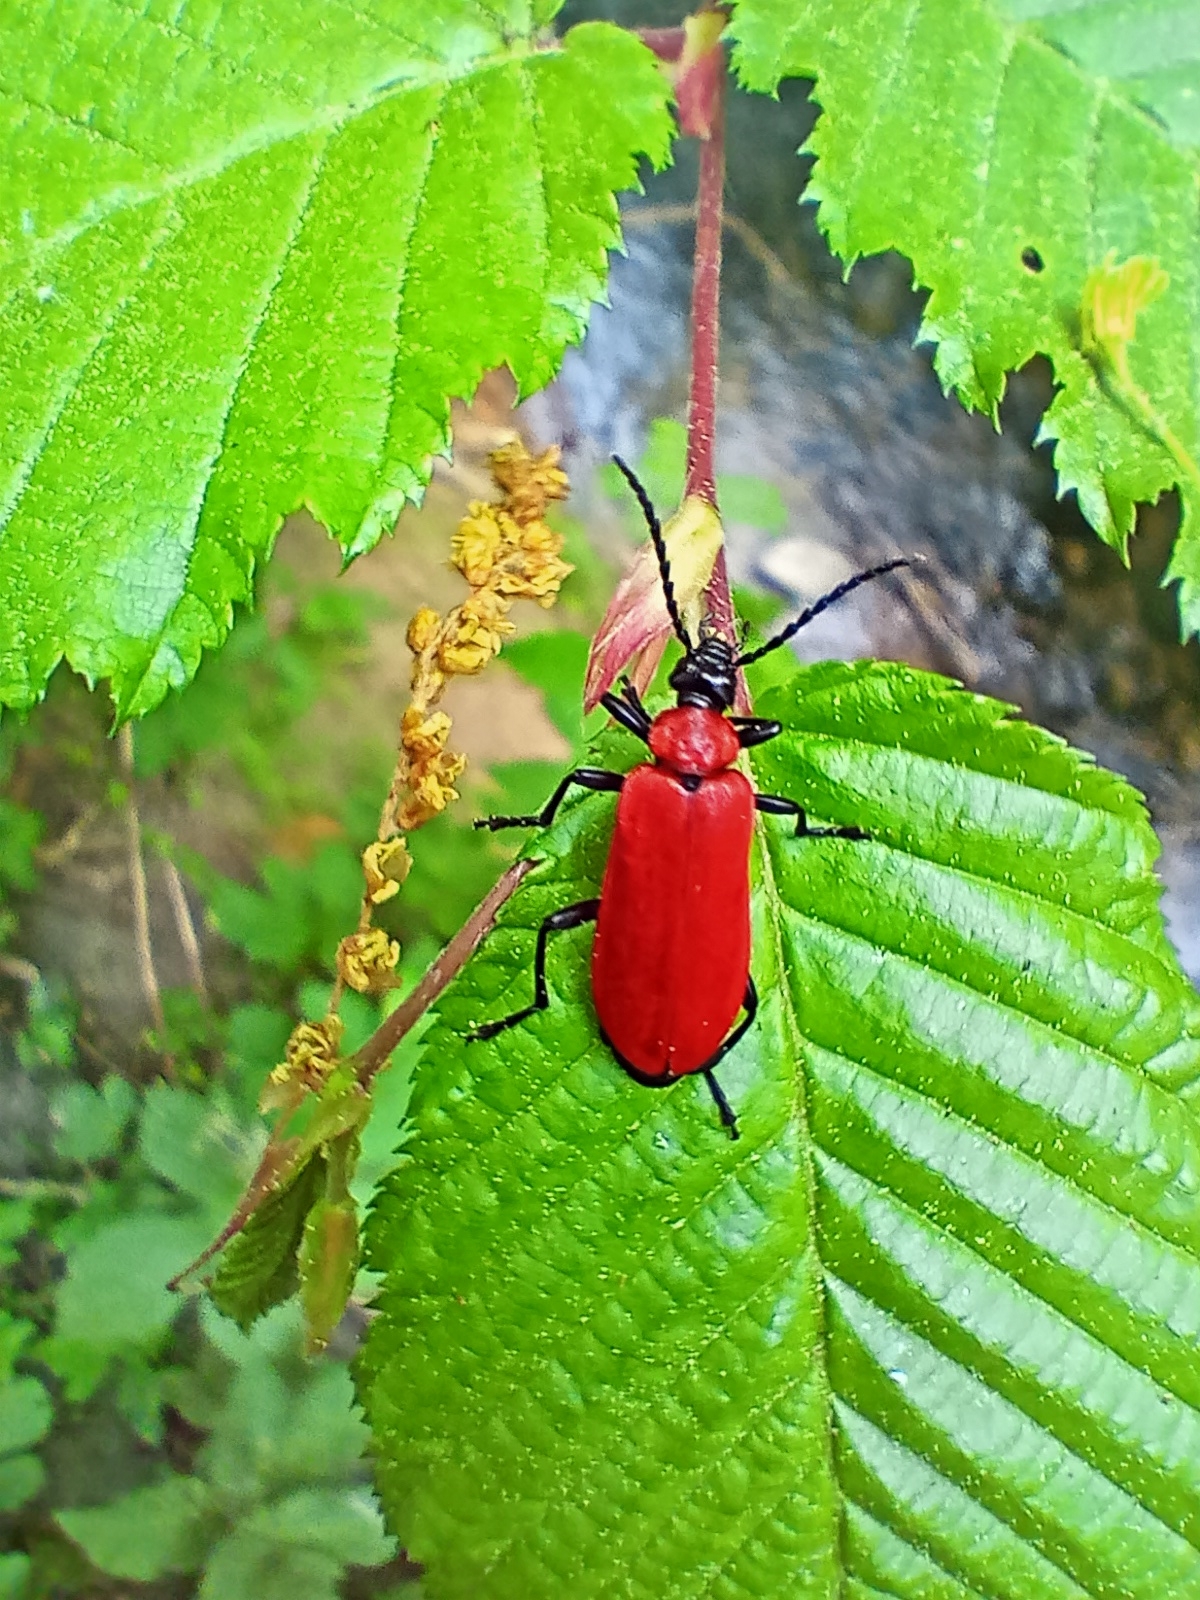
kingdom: Animalia
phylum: Arthropoda
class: Insecta
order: Coleoptera
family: Pyrochroidae
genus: Pyrochroa
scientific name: Pyrochroa coccinea
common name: Black-headed cardinal beetle
